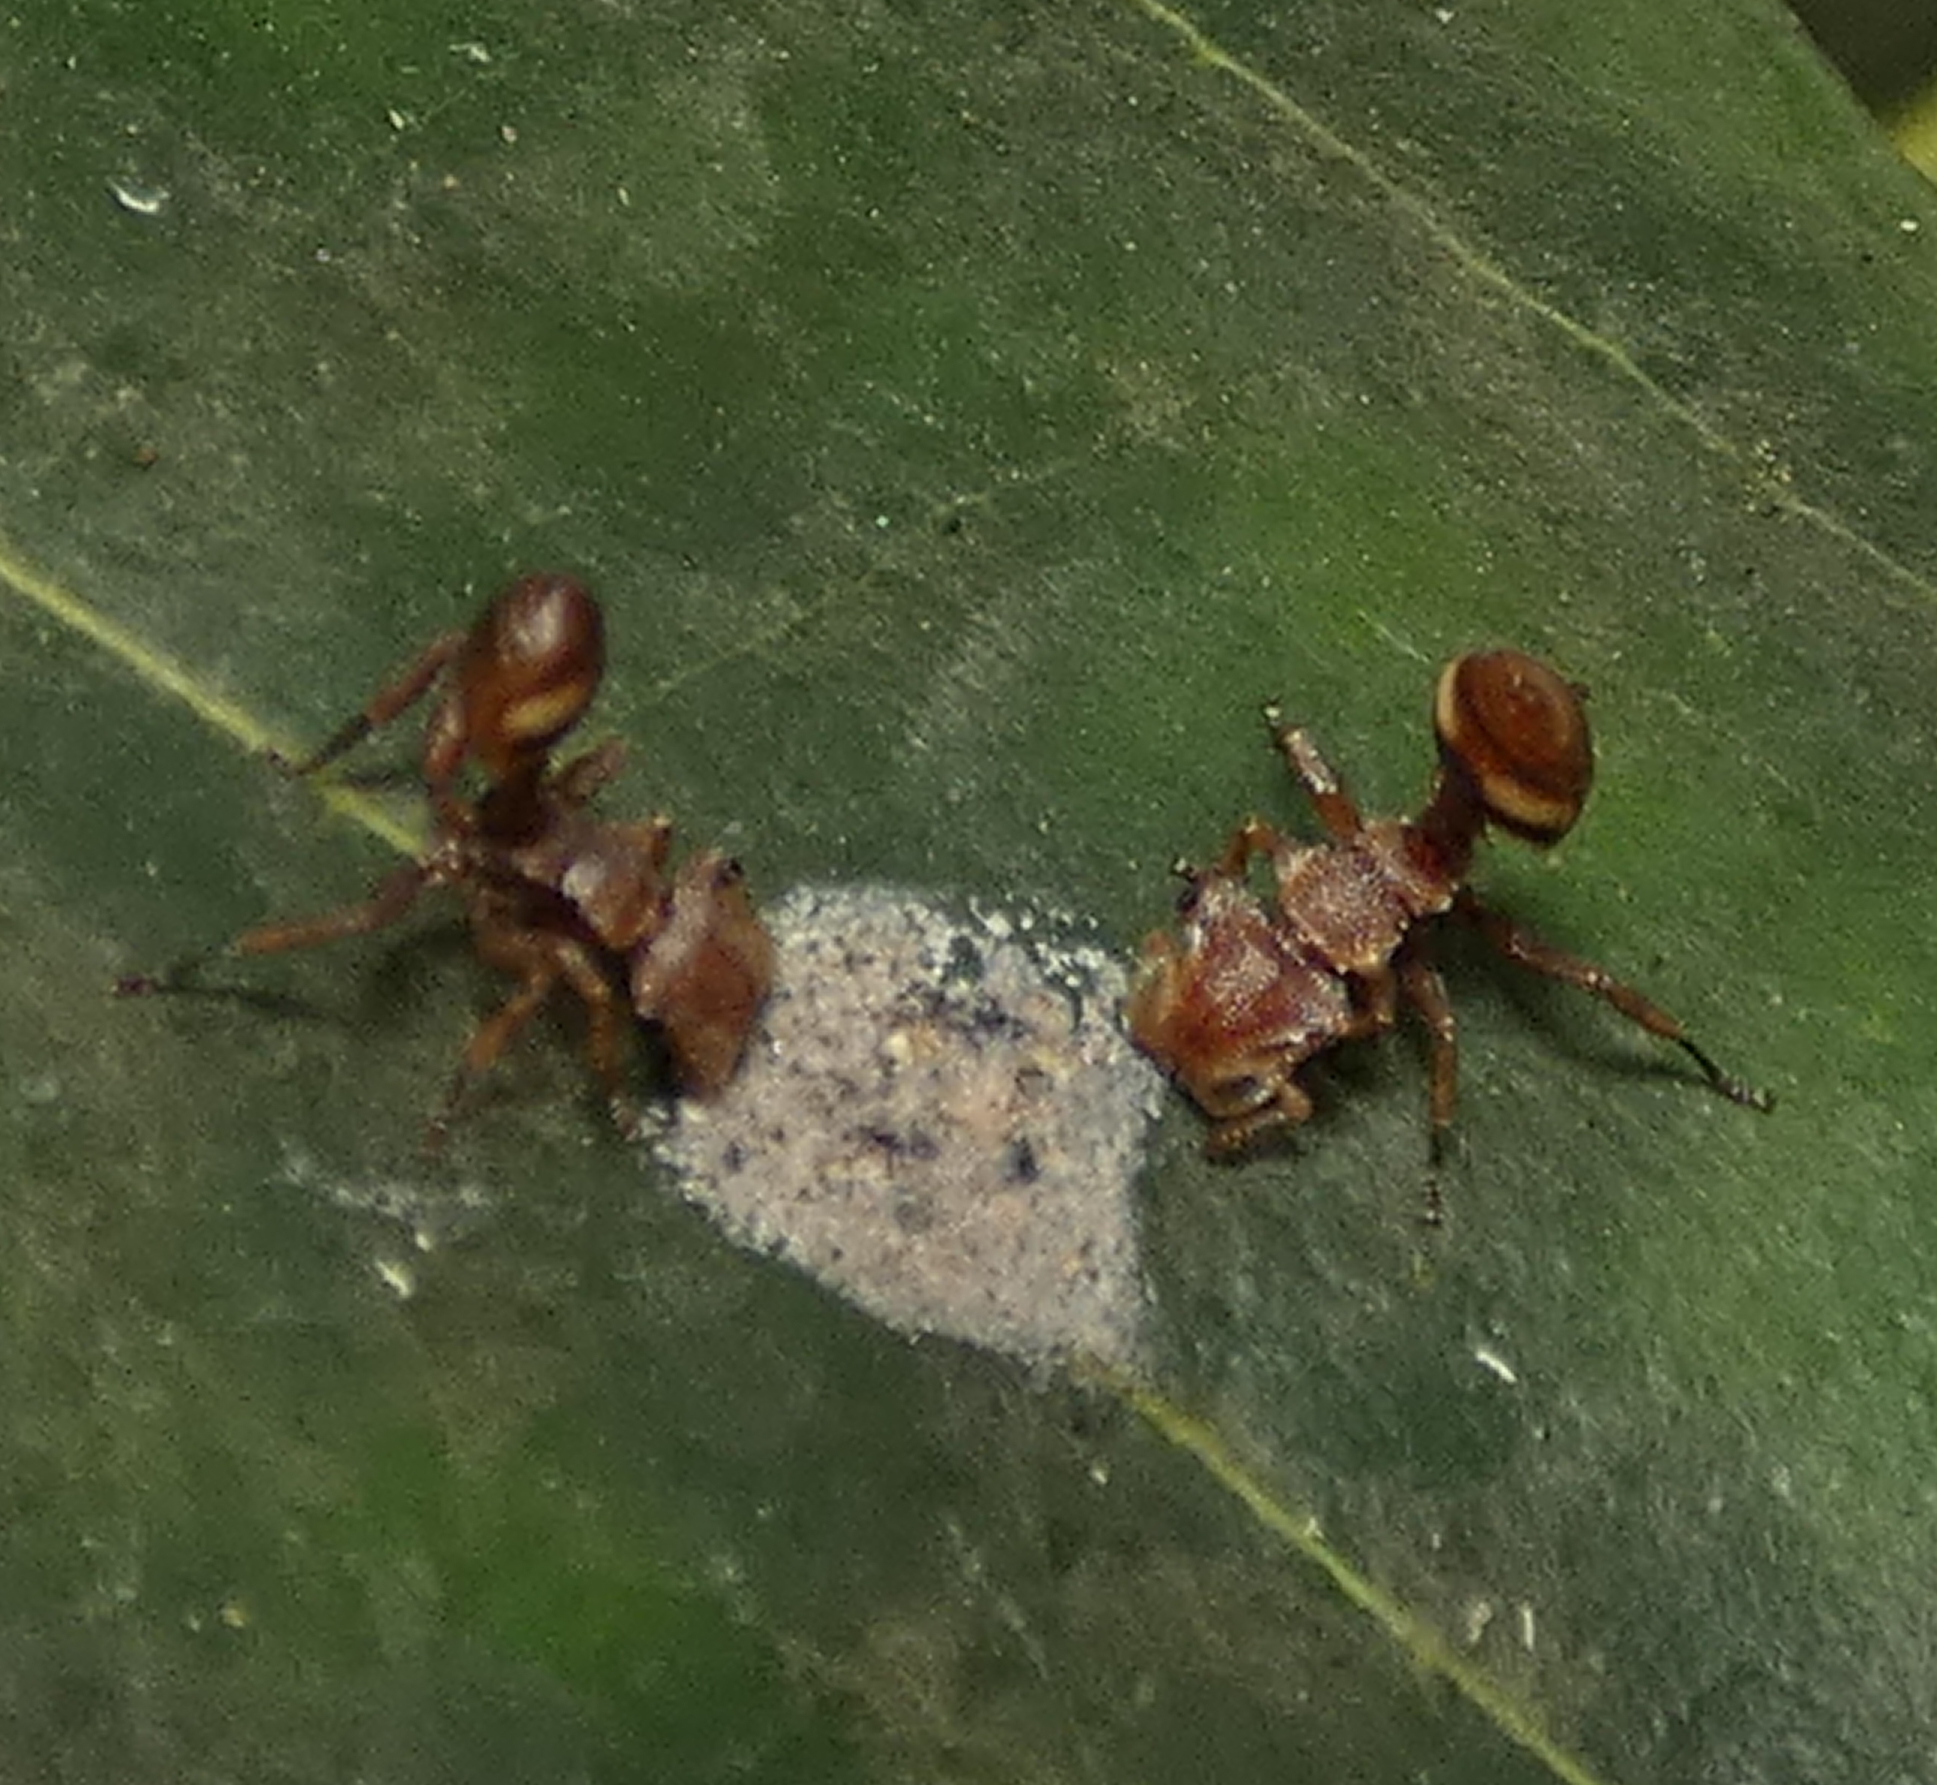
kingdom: Animalia
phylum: Arthropoda
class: Insecta
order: Hymenoptera
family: Formicidae
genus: Cephalotes
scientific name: Cephalotes umbraculatus
